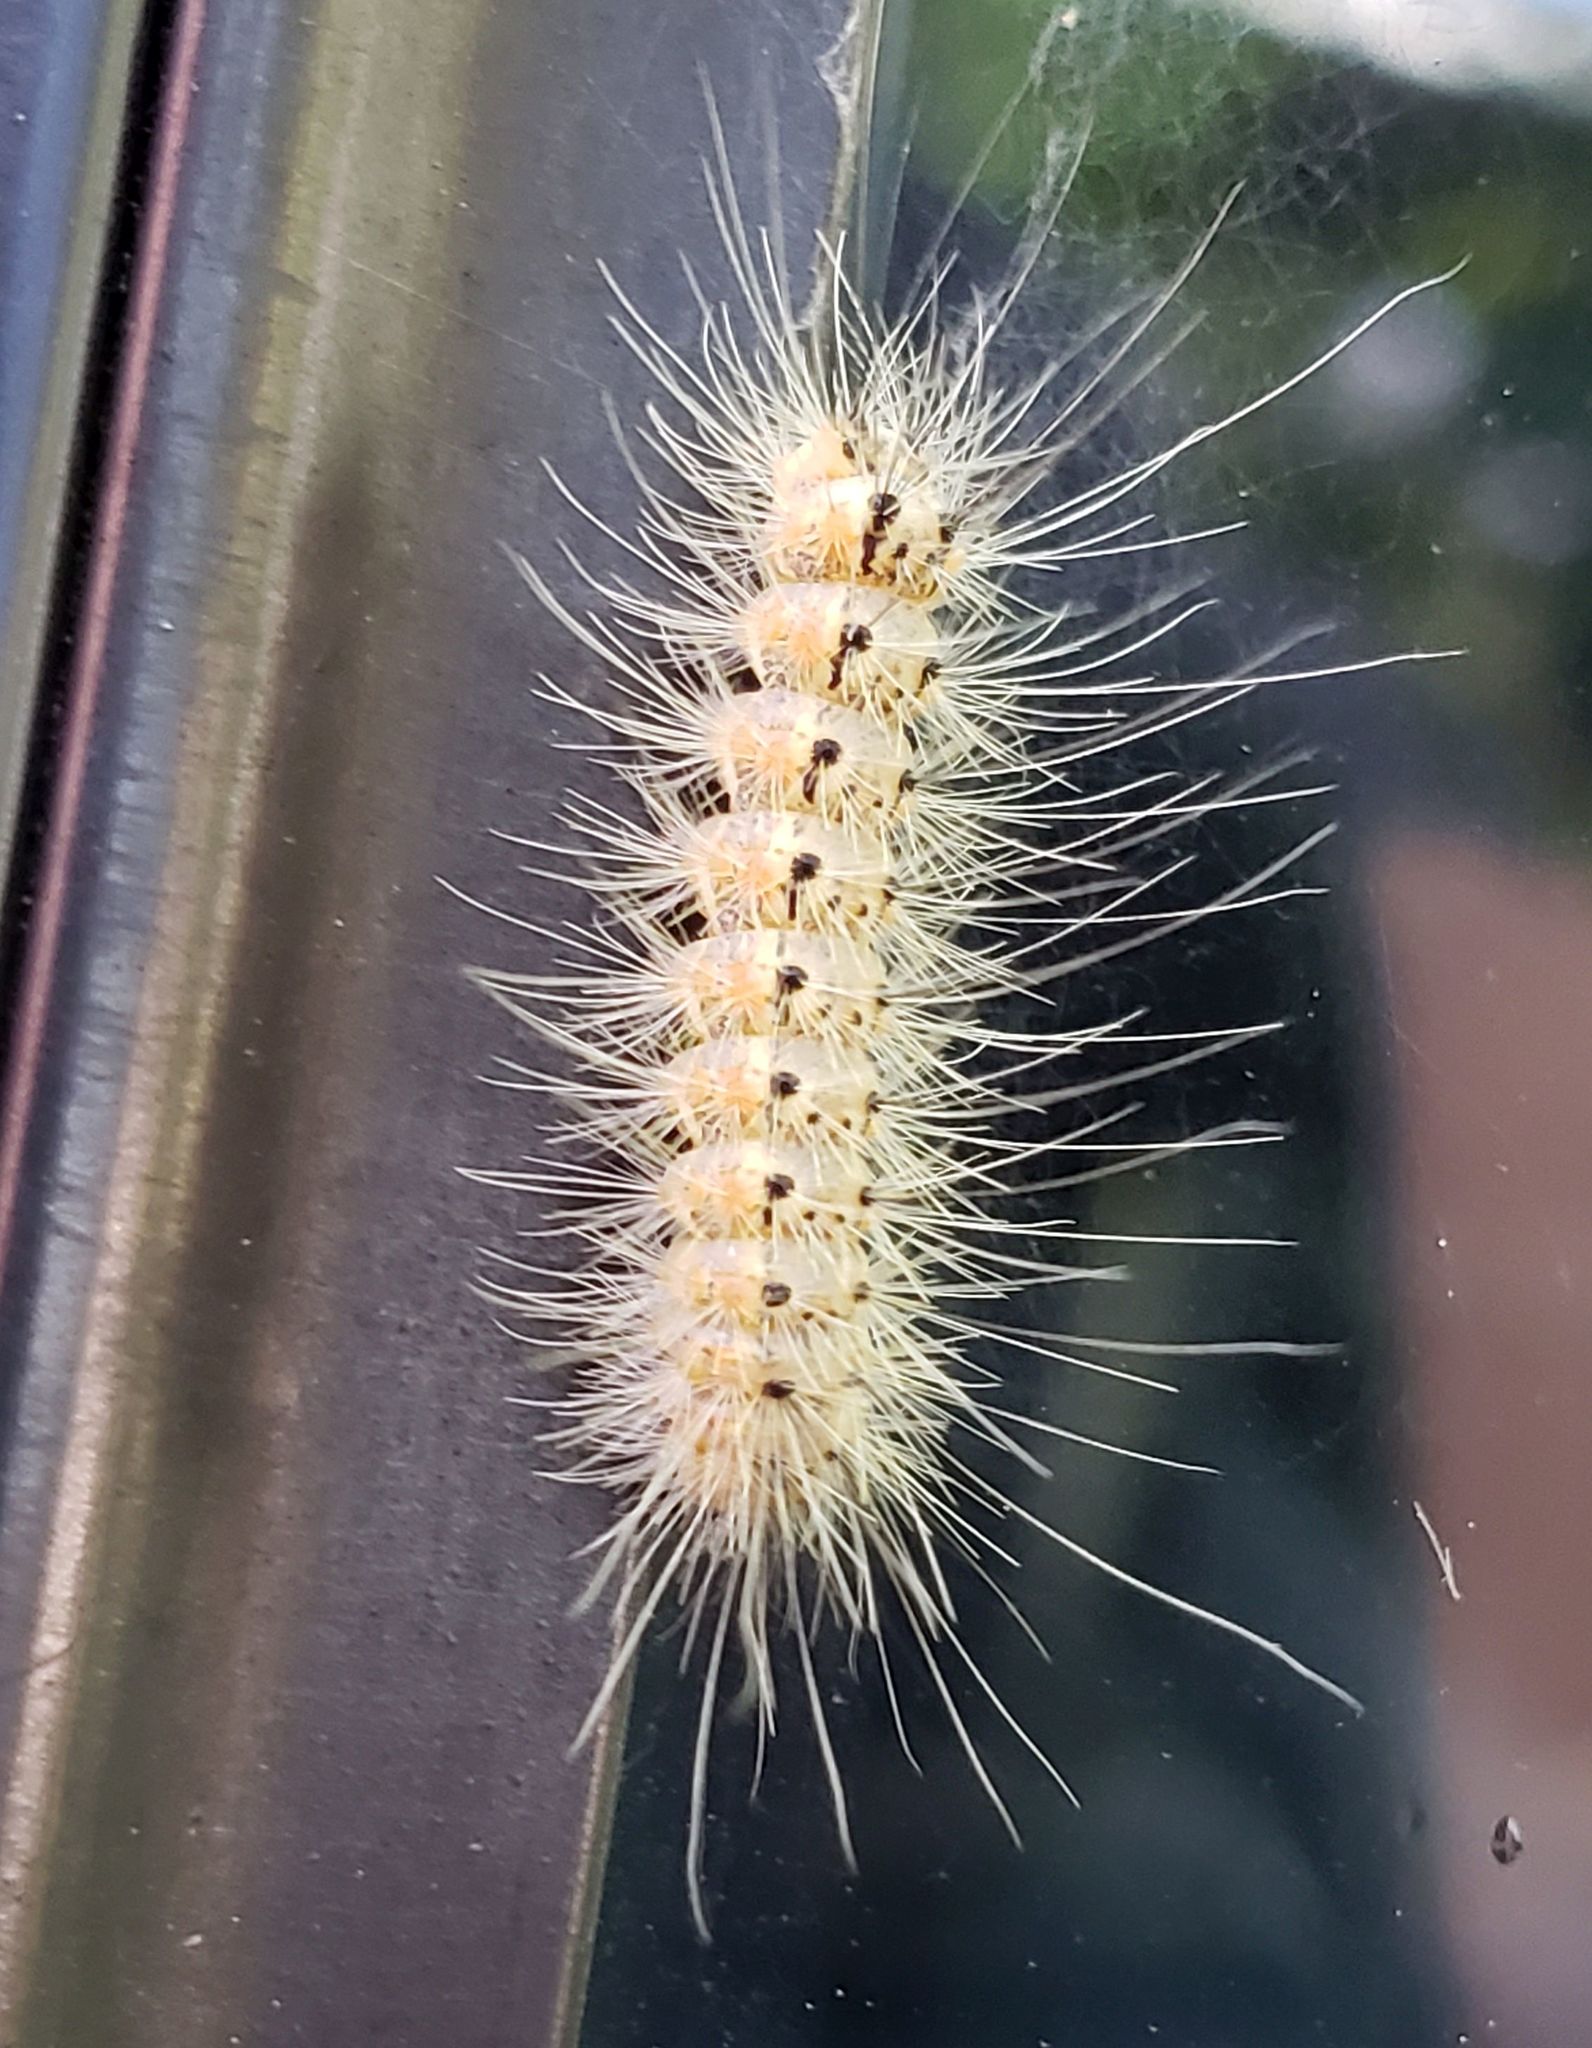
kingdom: Animalia
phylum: Arthropoda
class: Insecta
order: Lepidoptera
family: Erebidae
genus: Hyphantria
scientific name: Hyphantria cunea
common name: American white moth
